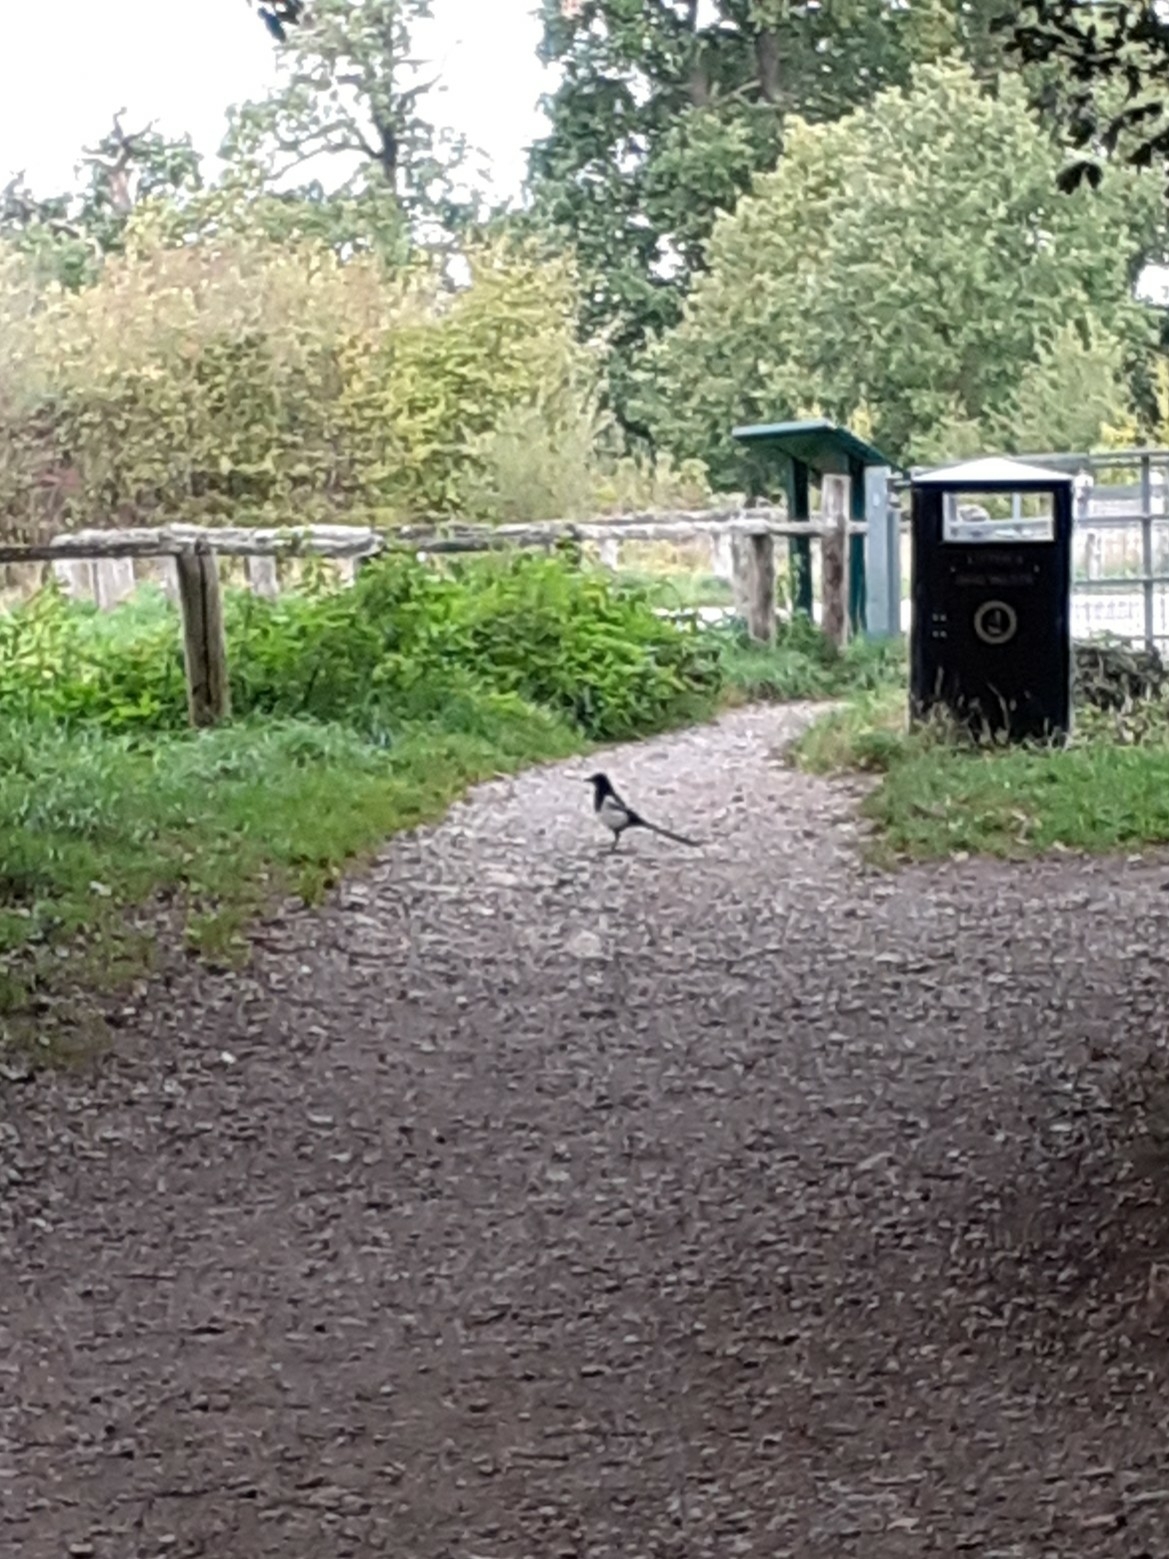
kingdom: Animalia
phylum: Chordata
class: Aves
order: Passeriformes
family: Corvidae
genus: Pica
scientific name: Pica pica
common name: Eurasian magpie
